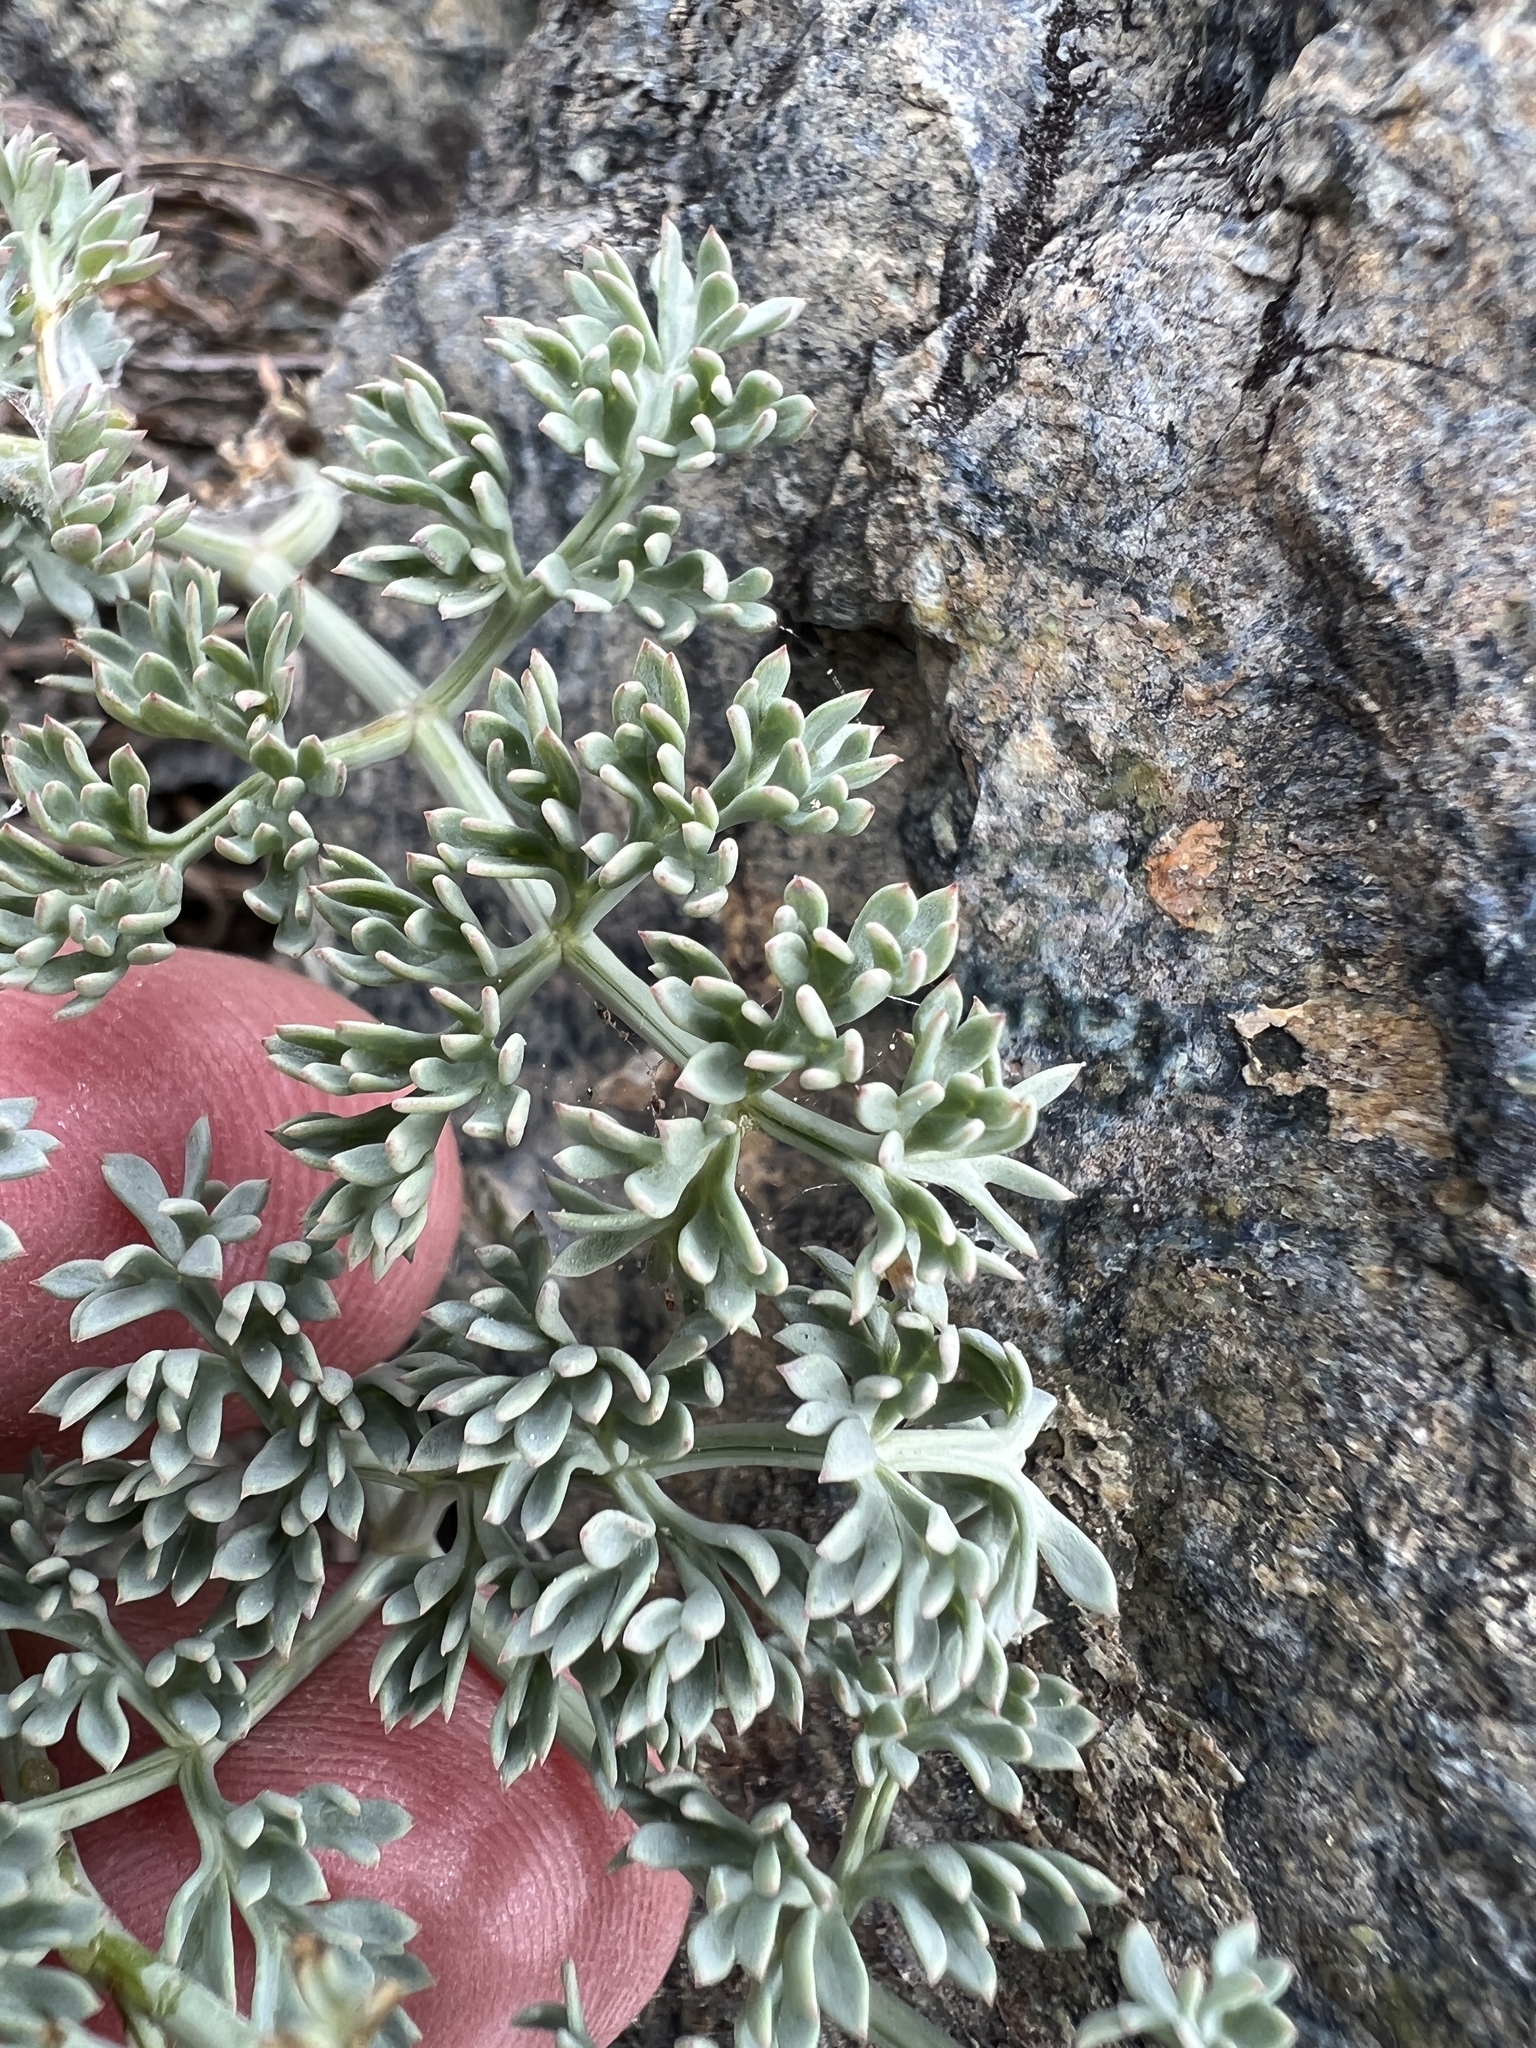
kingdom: Plantae
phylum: Tracheophyta
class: Magnoliopsida
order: Apiales
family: Apiaceae
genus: Lomatium
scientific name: Lomatium cuspidatum
